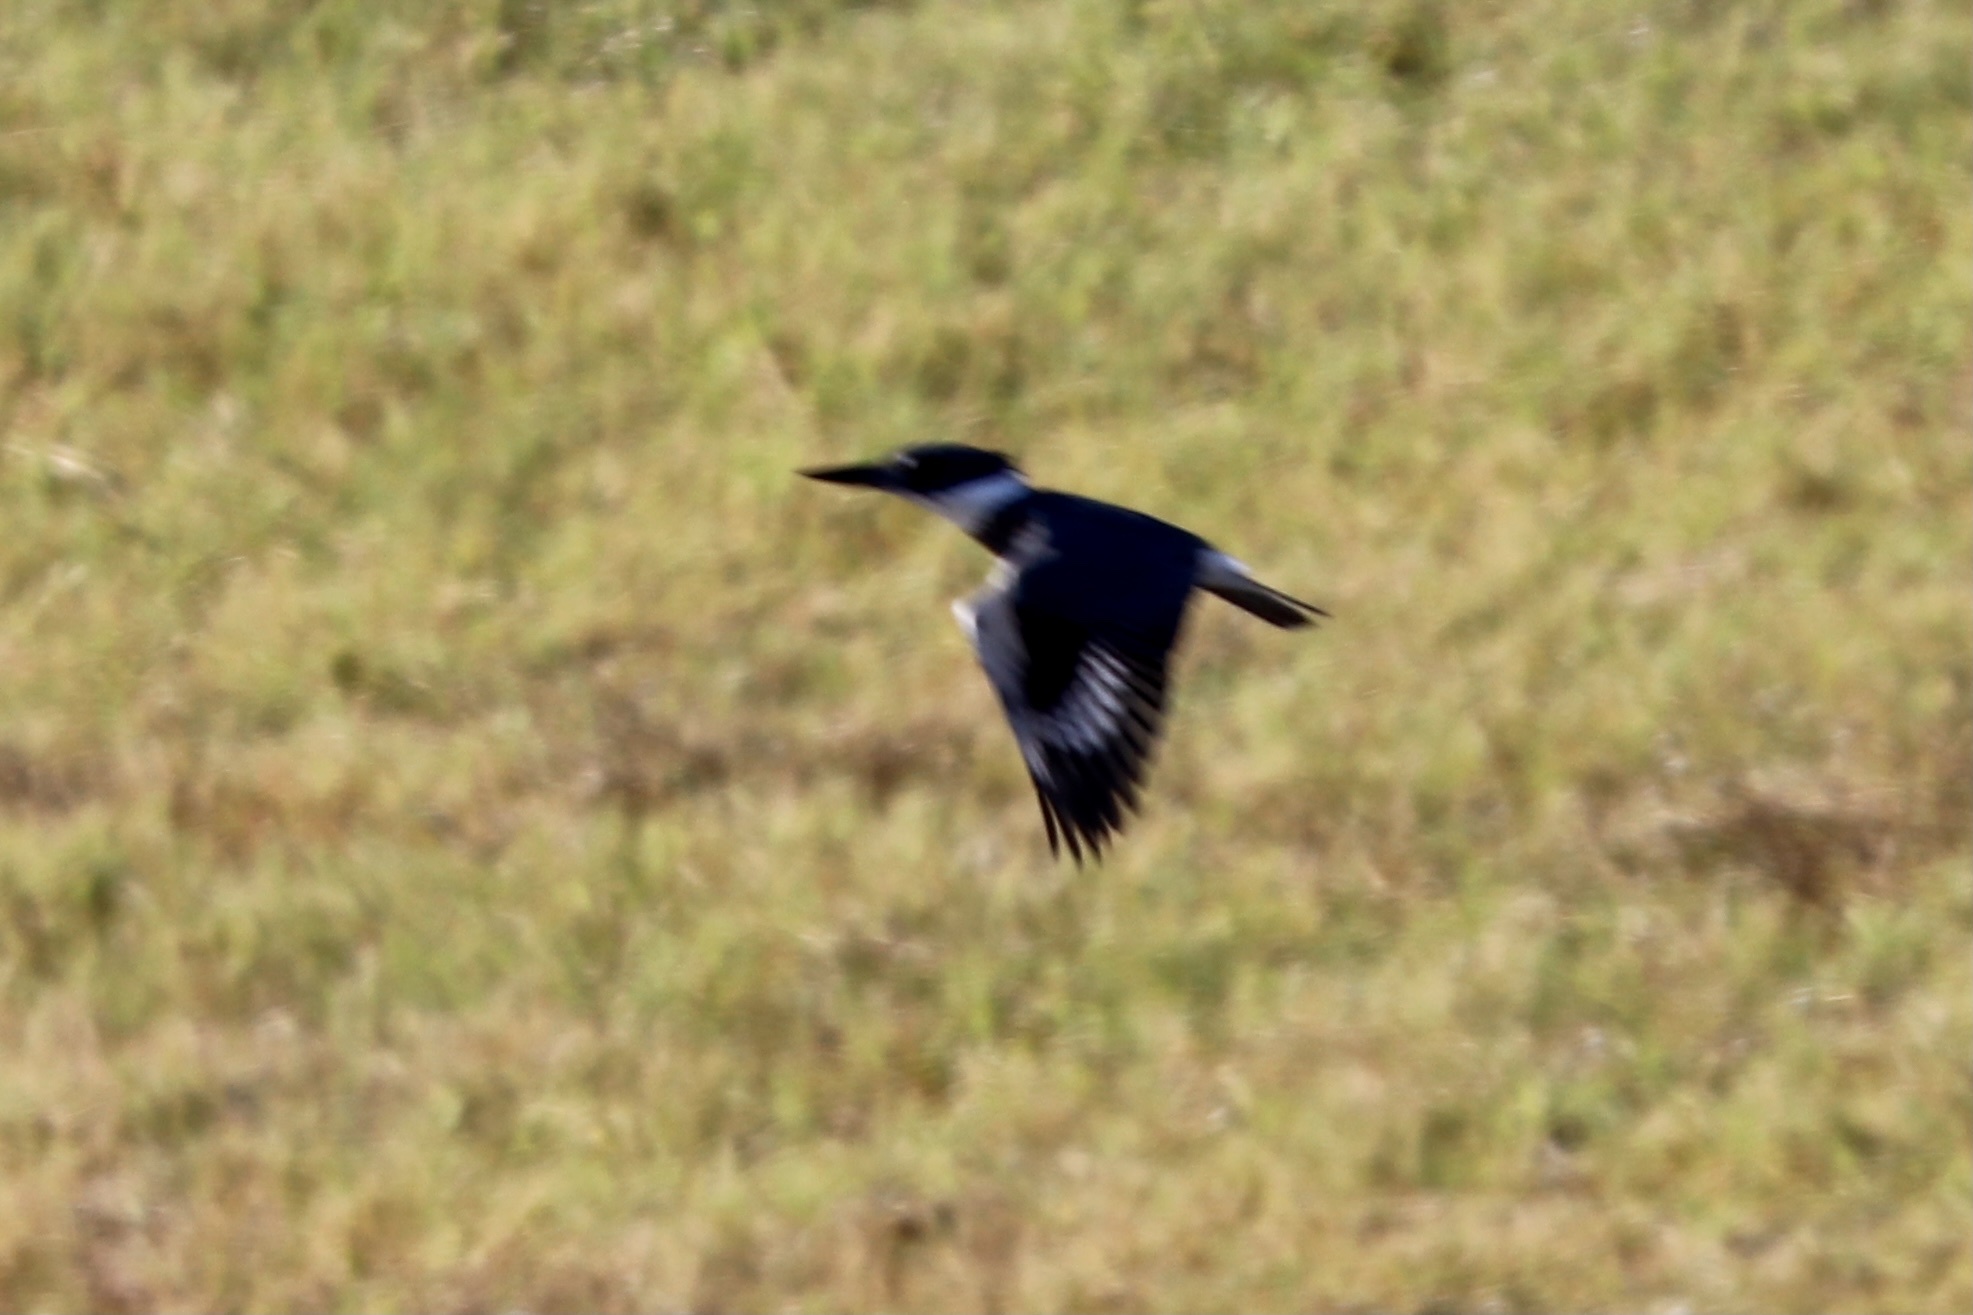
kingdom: Animalia
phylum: Chordata
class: Aves
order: Coraciiformes
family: Alcedinidae
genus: Megaceryle
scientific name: Megaceryle alcyon
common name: Belted kingfisher
